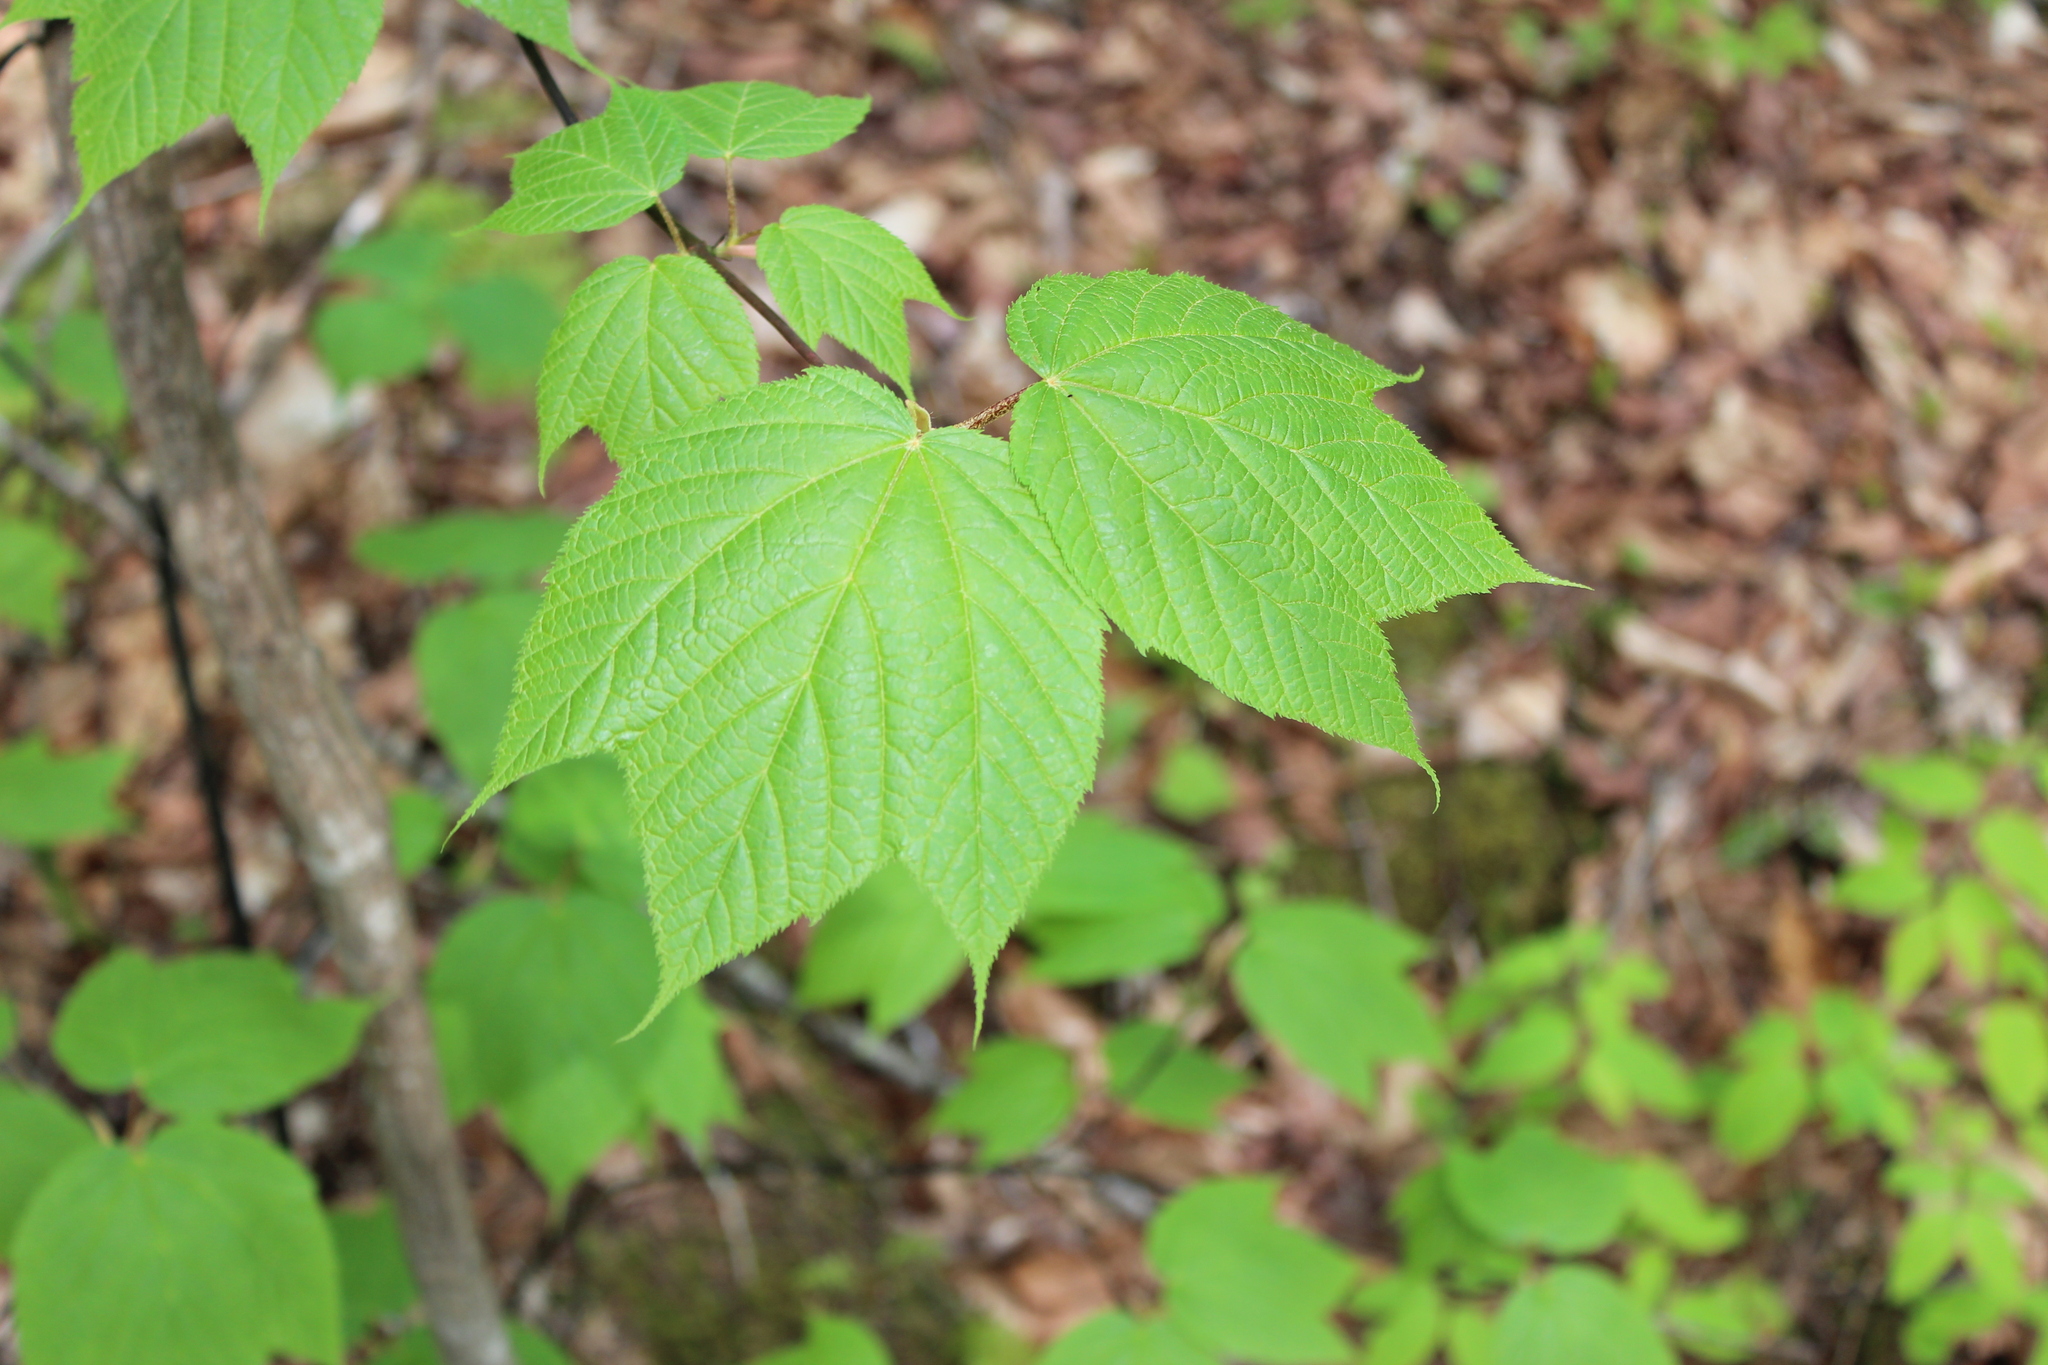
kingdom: Plantae
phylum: Tracheophyta
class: Magnoliopsida
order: Sapindales
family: Sapindaceae
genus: Acer
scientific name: Acer pensylvanicum
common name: Moosewood
